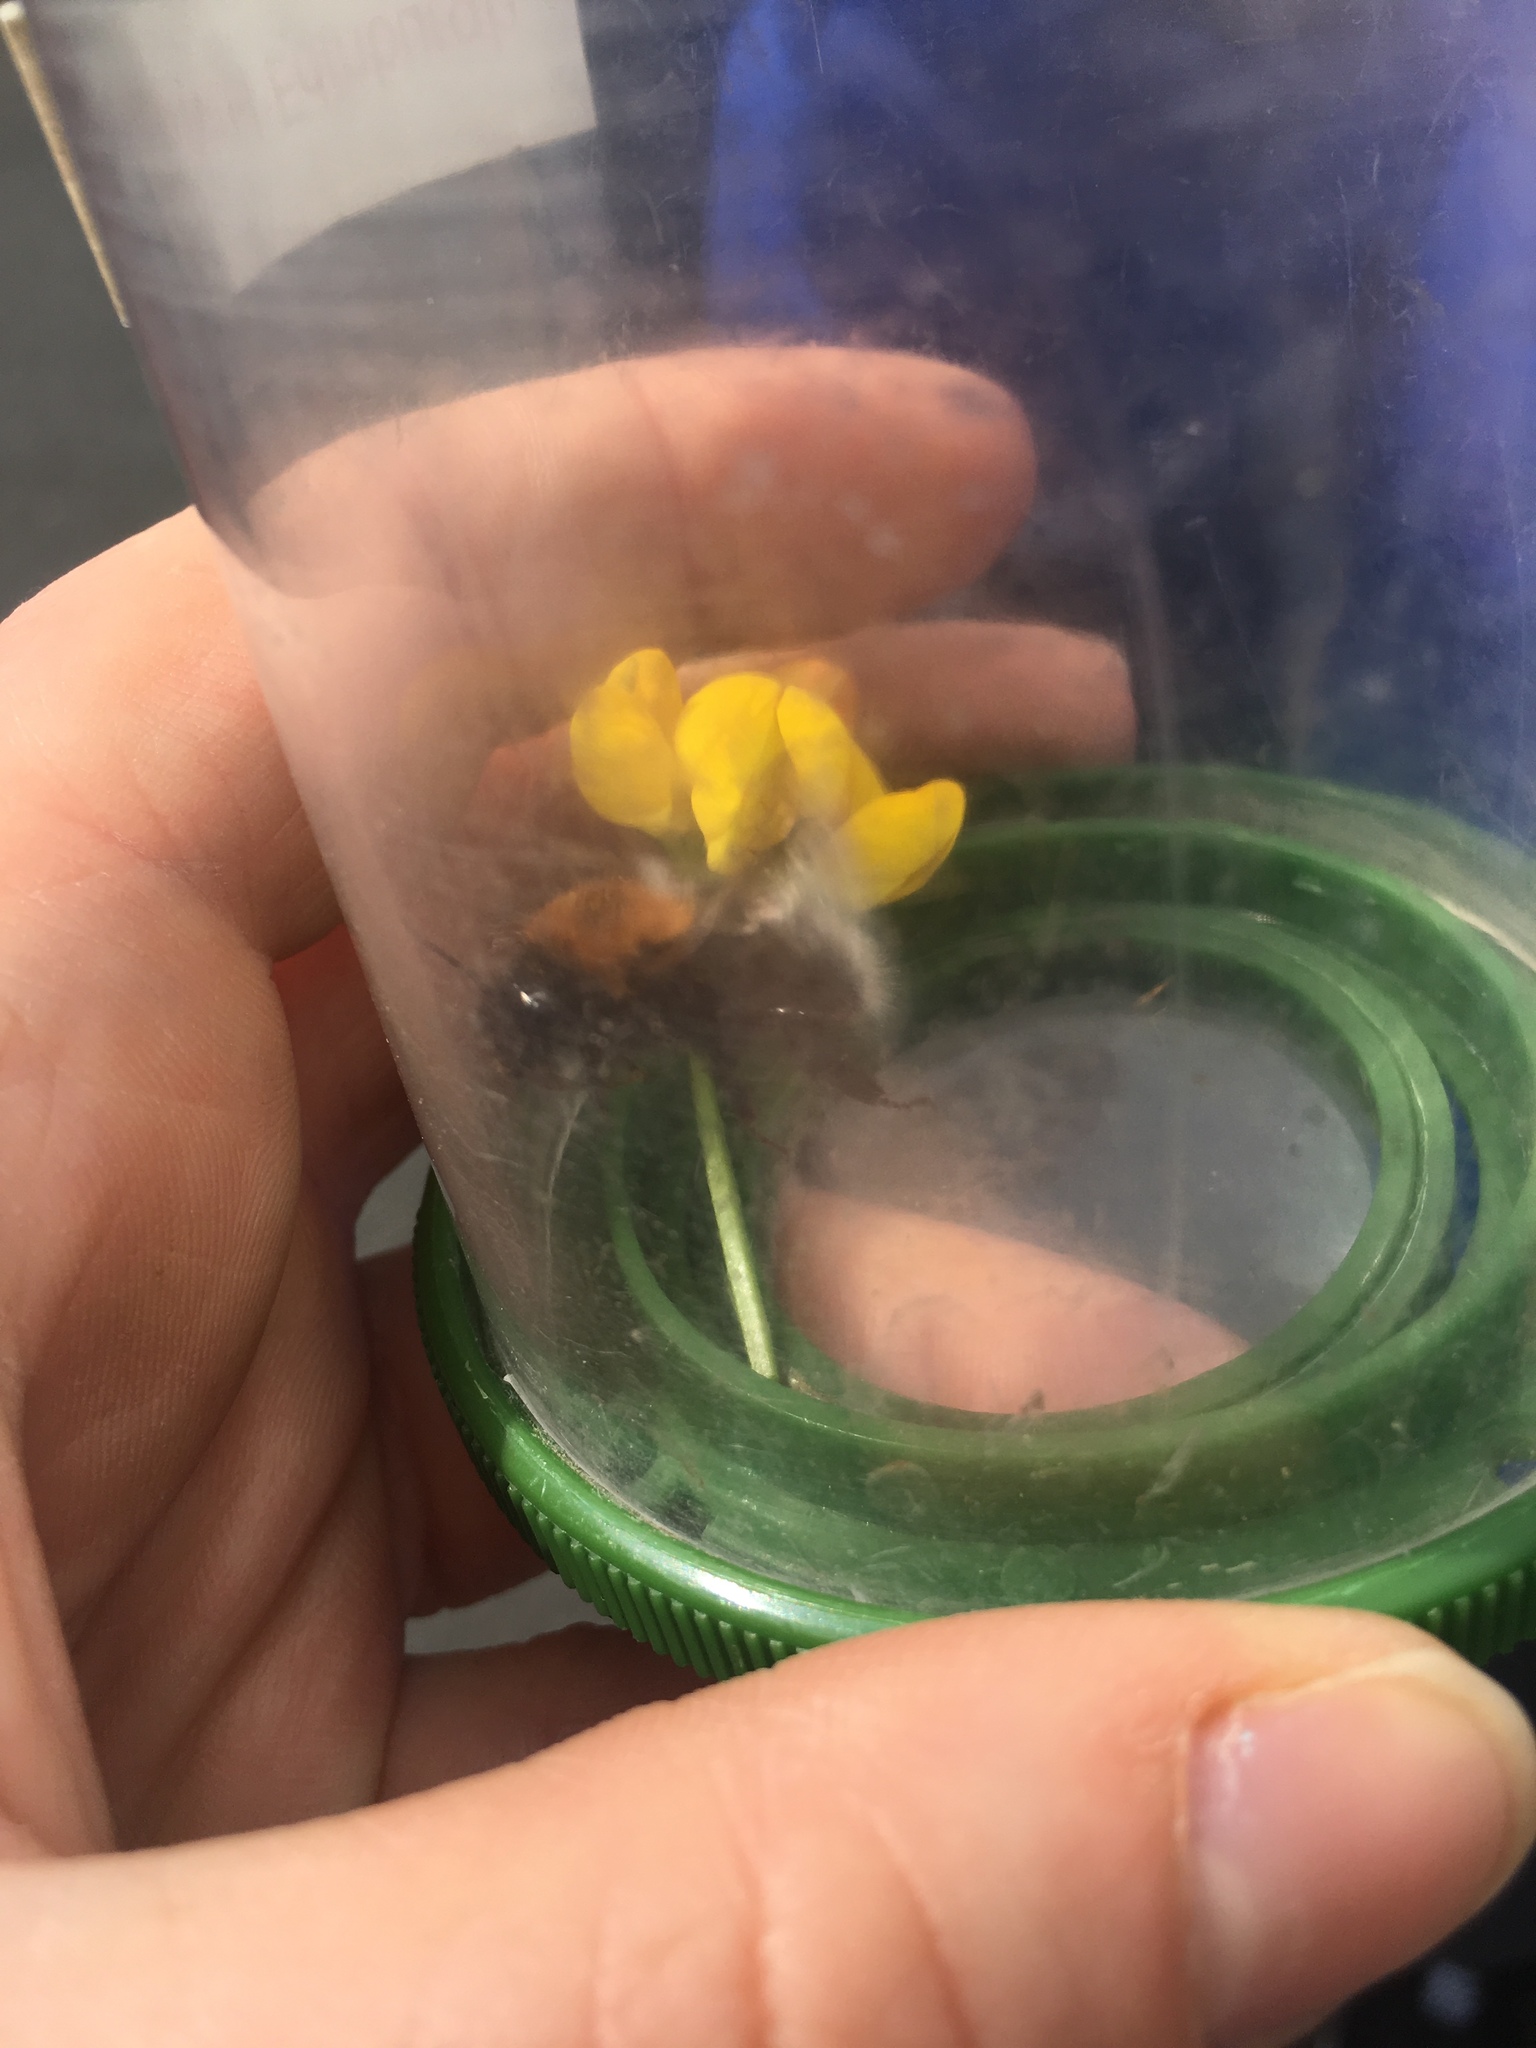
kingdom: Animalia
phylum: Arthropoda
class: Insecta
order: Hymenoptera
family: Apidae
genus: Bombus
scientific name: Bombus hypnorum
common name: New garden bumblebee
